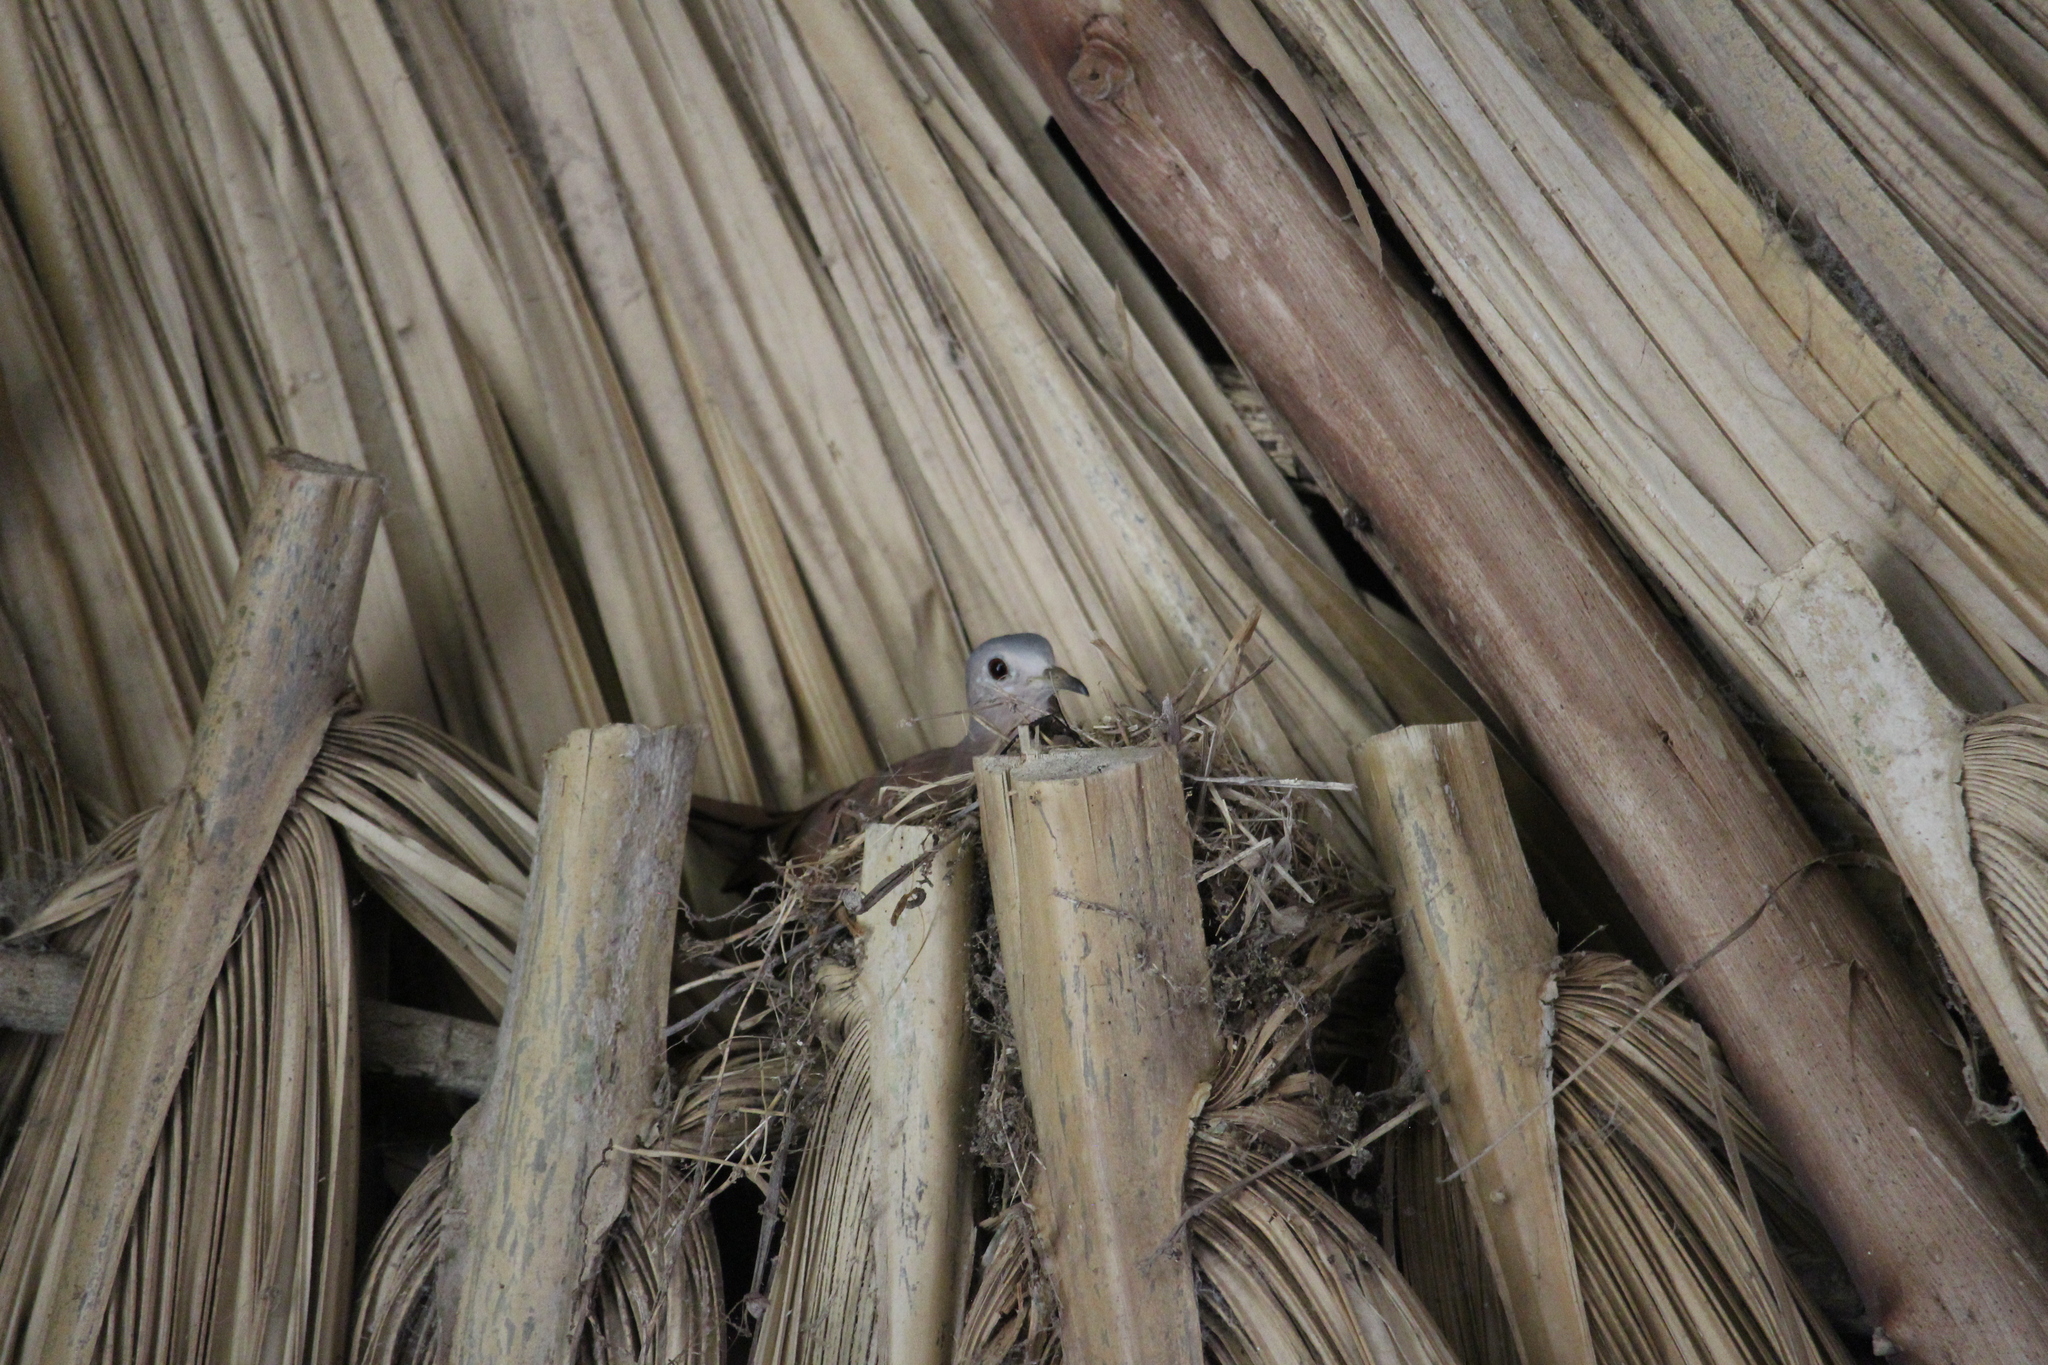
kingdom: Animalia
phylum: Chordata
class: Aves
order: Columbiformes
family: Columbidae
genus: Columbina
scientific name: Columbina talpacoti
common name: Ruddy ground dove
